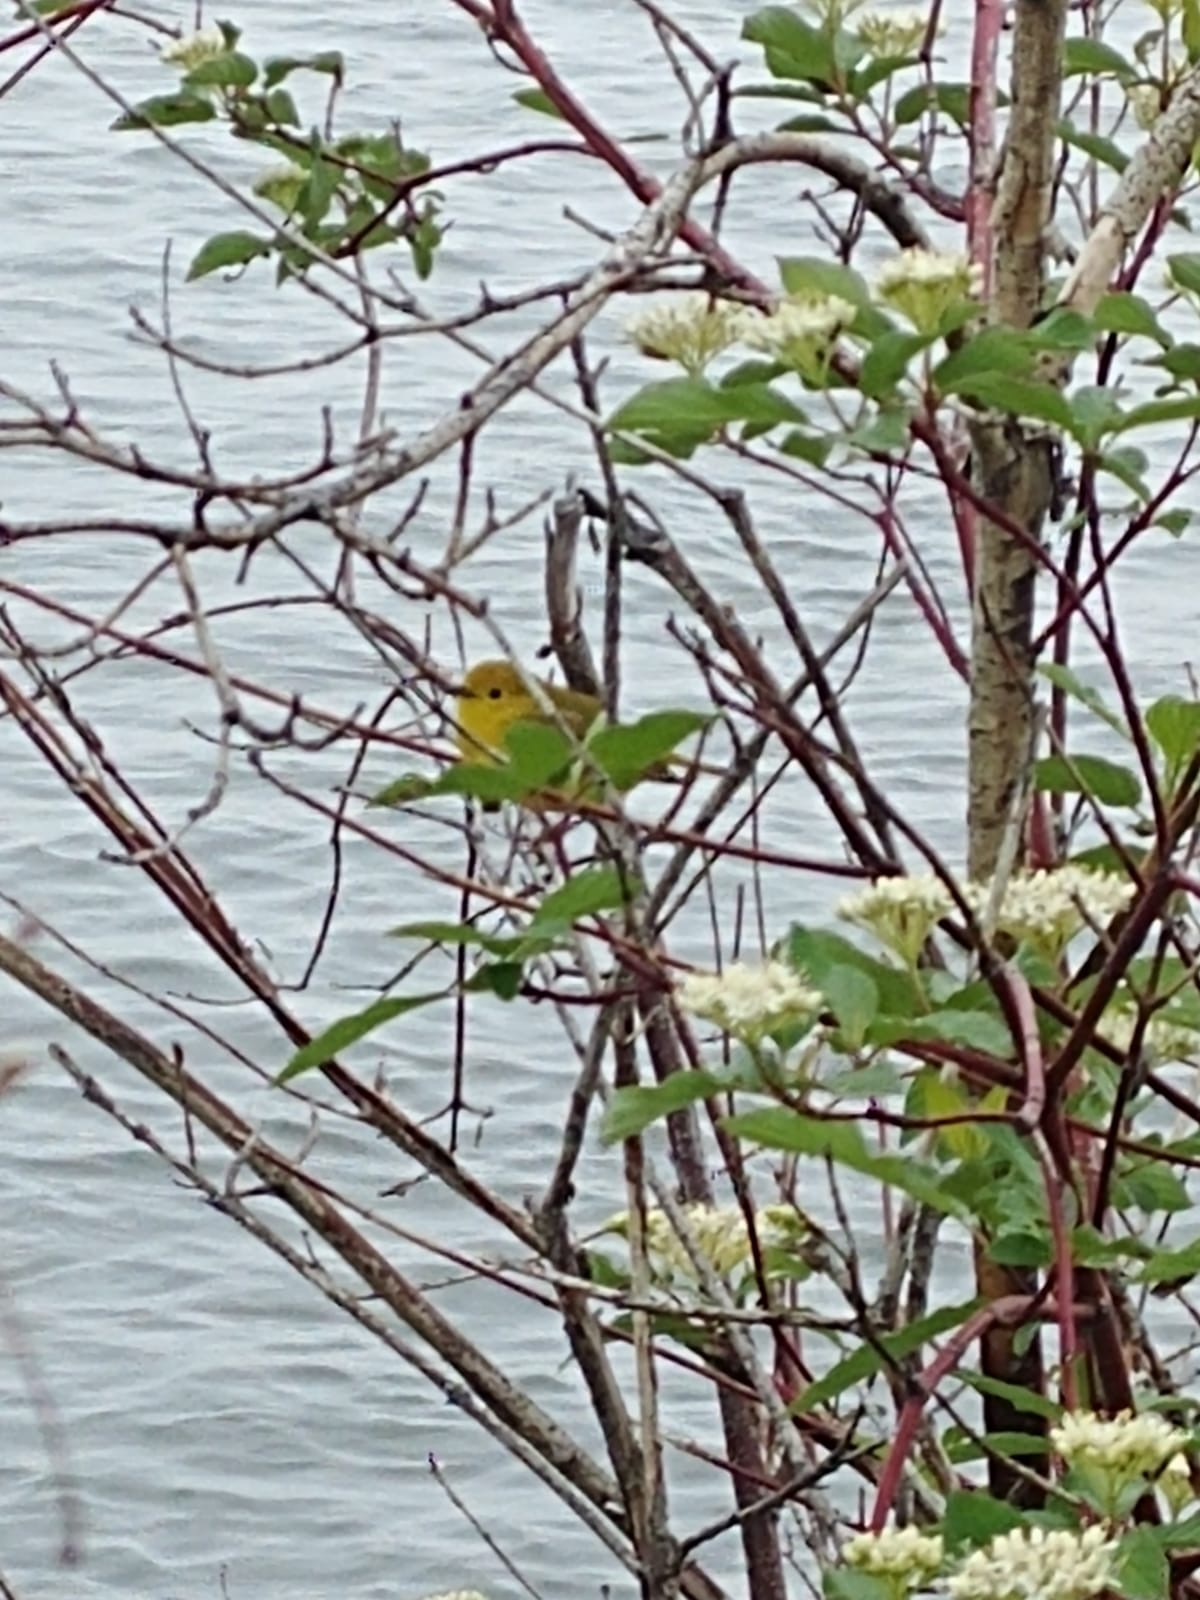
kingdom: Animalia
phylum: Chordata
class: Aves
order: Passeriformes
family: Parulidae
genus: Setophaga
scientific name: Setophaga petechia
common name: Yellow warbler
